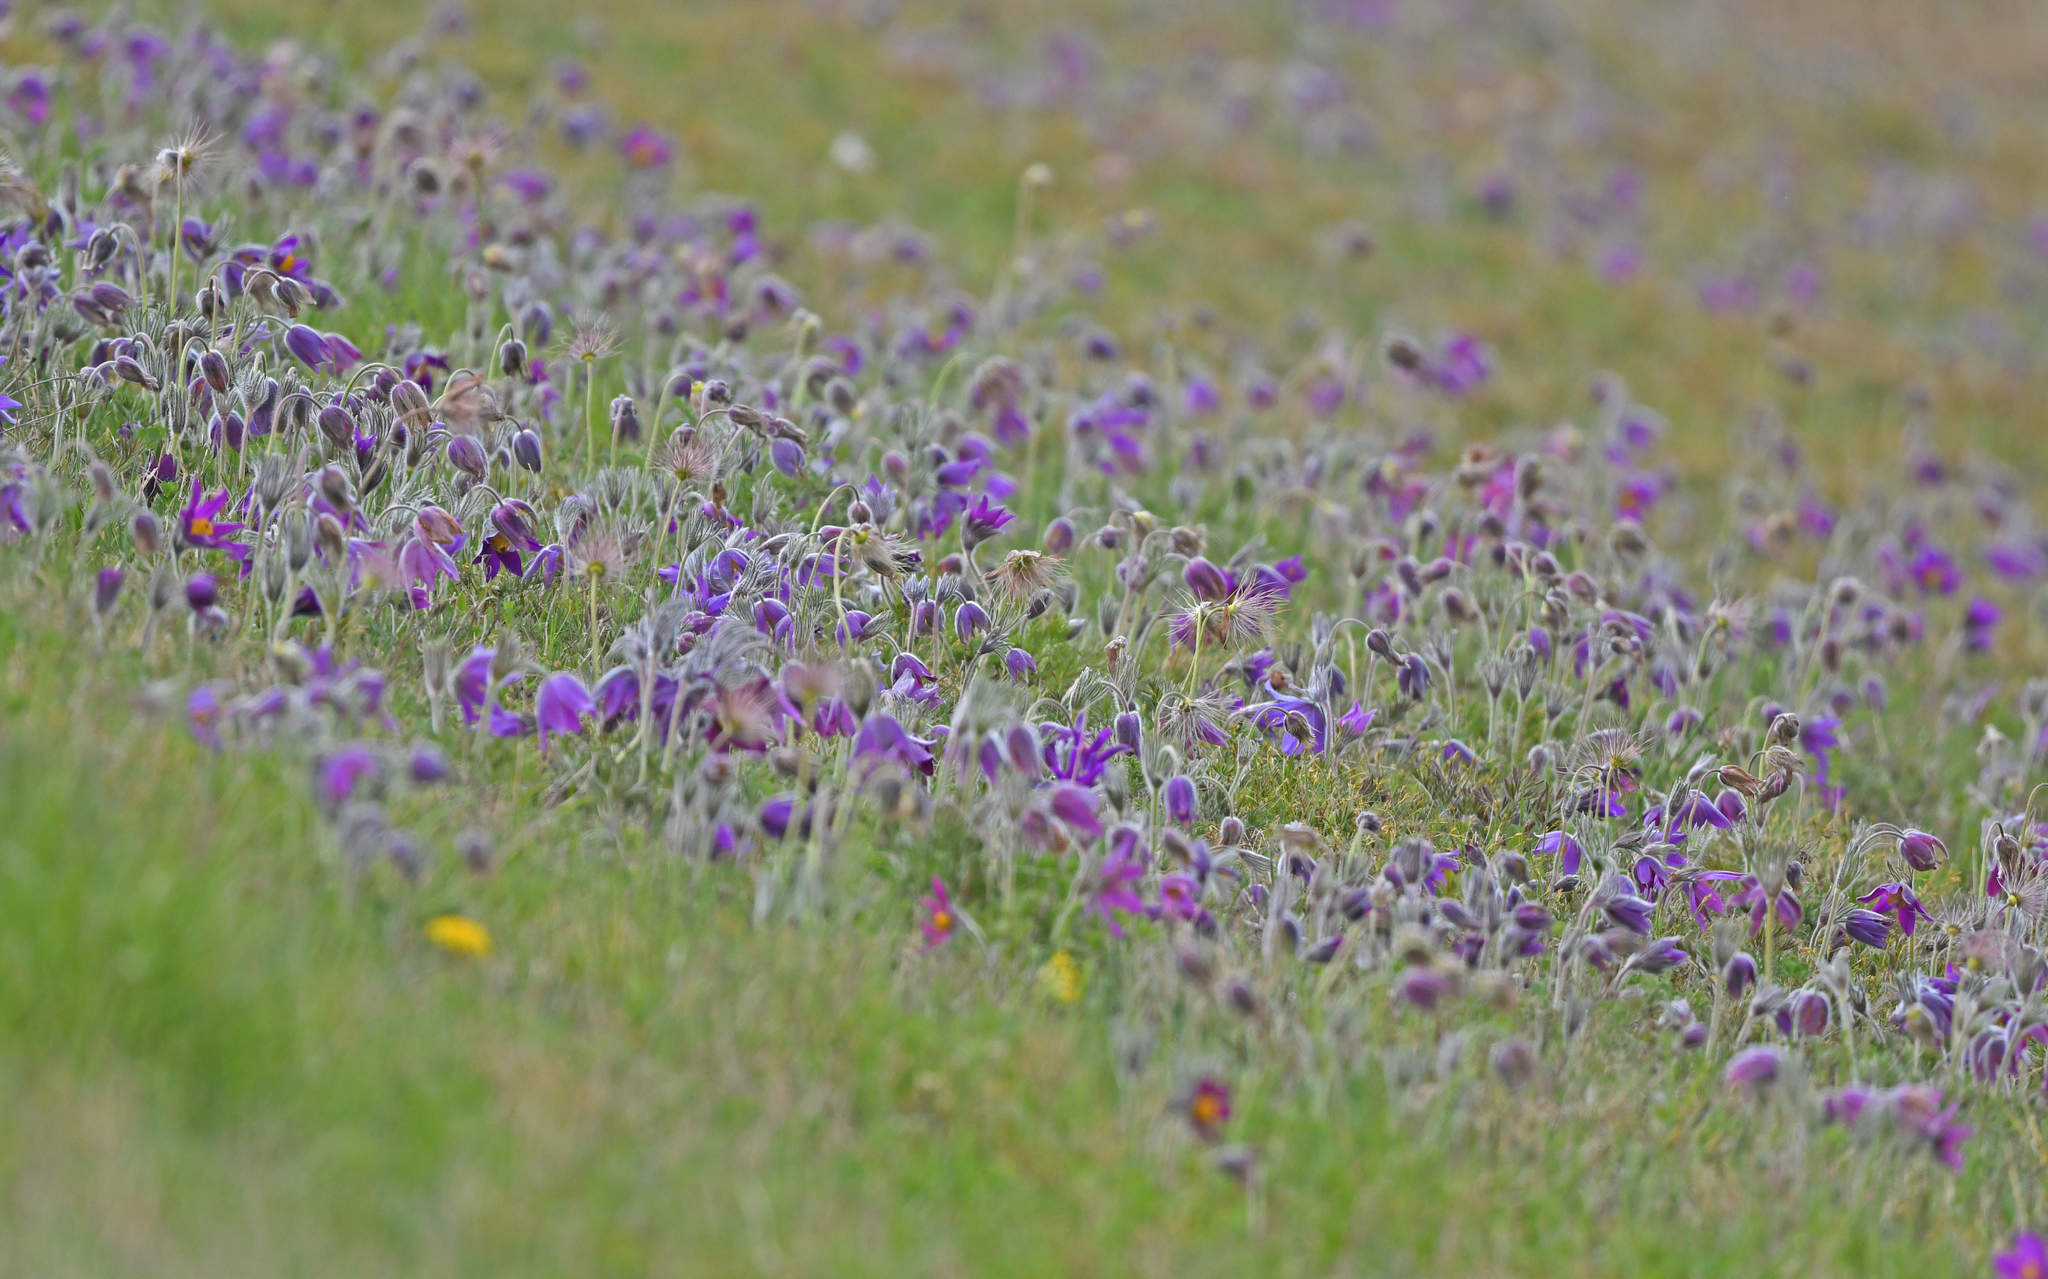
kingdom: Plantae
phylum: Tracheophyta
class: Magnoliopsida
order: Ranunculales
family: Ranunculaceae
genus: Pulsatilla
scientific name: Pulsatilla vulgaris
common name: Pasqueflower
